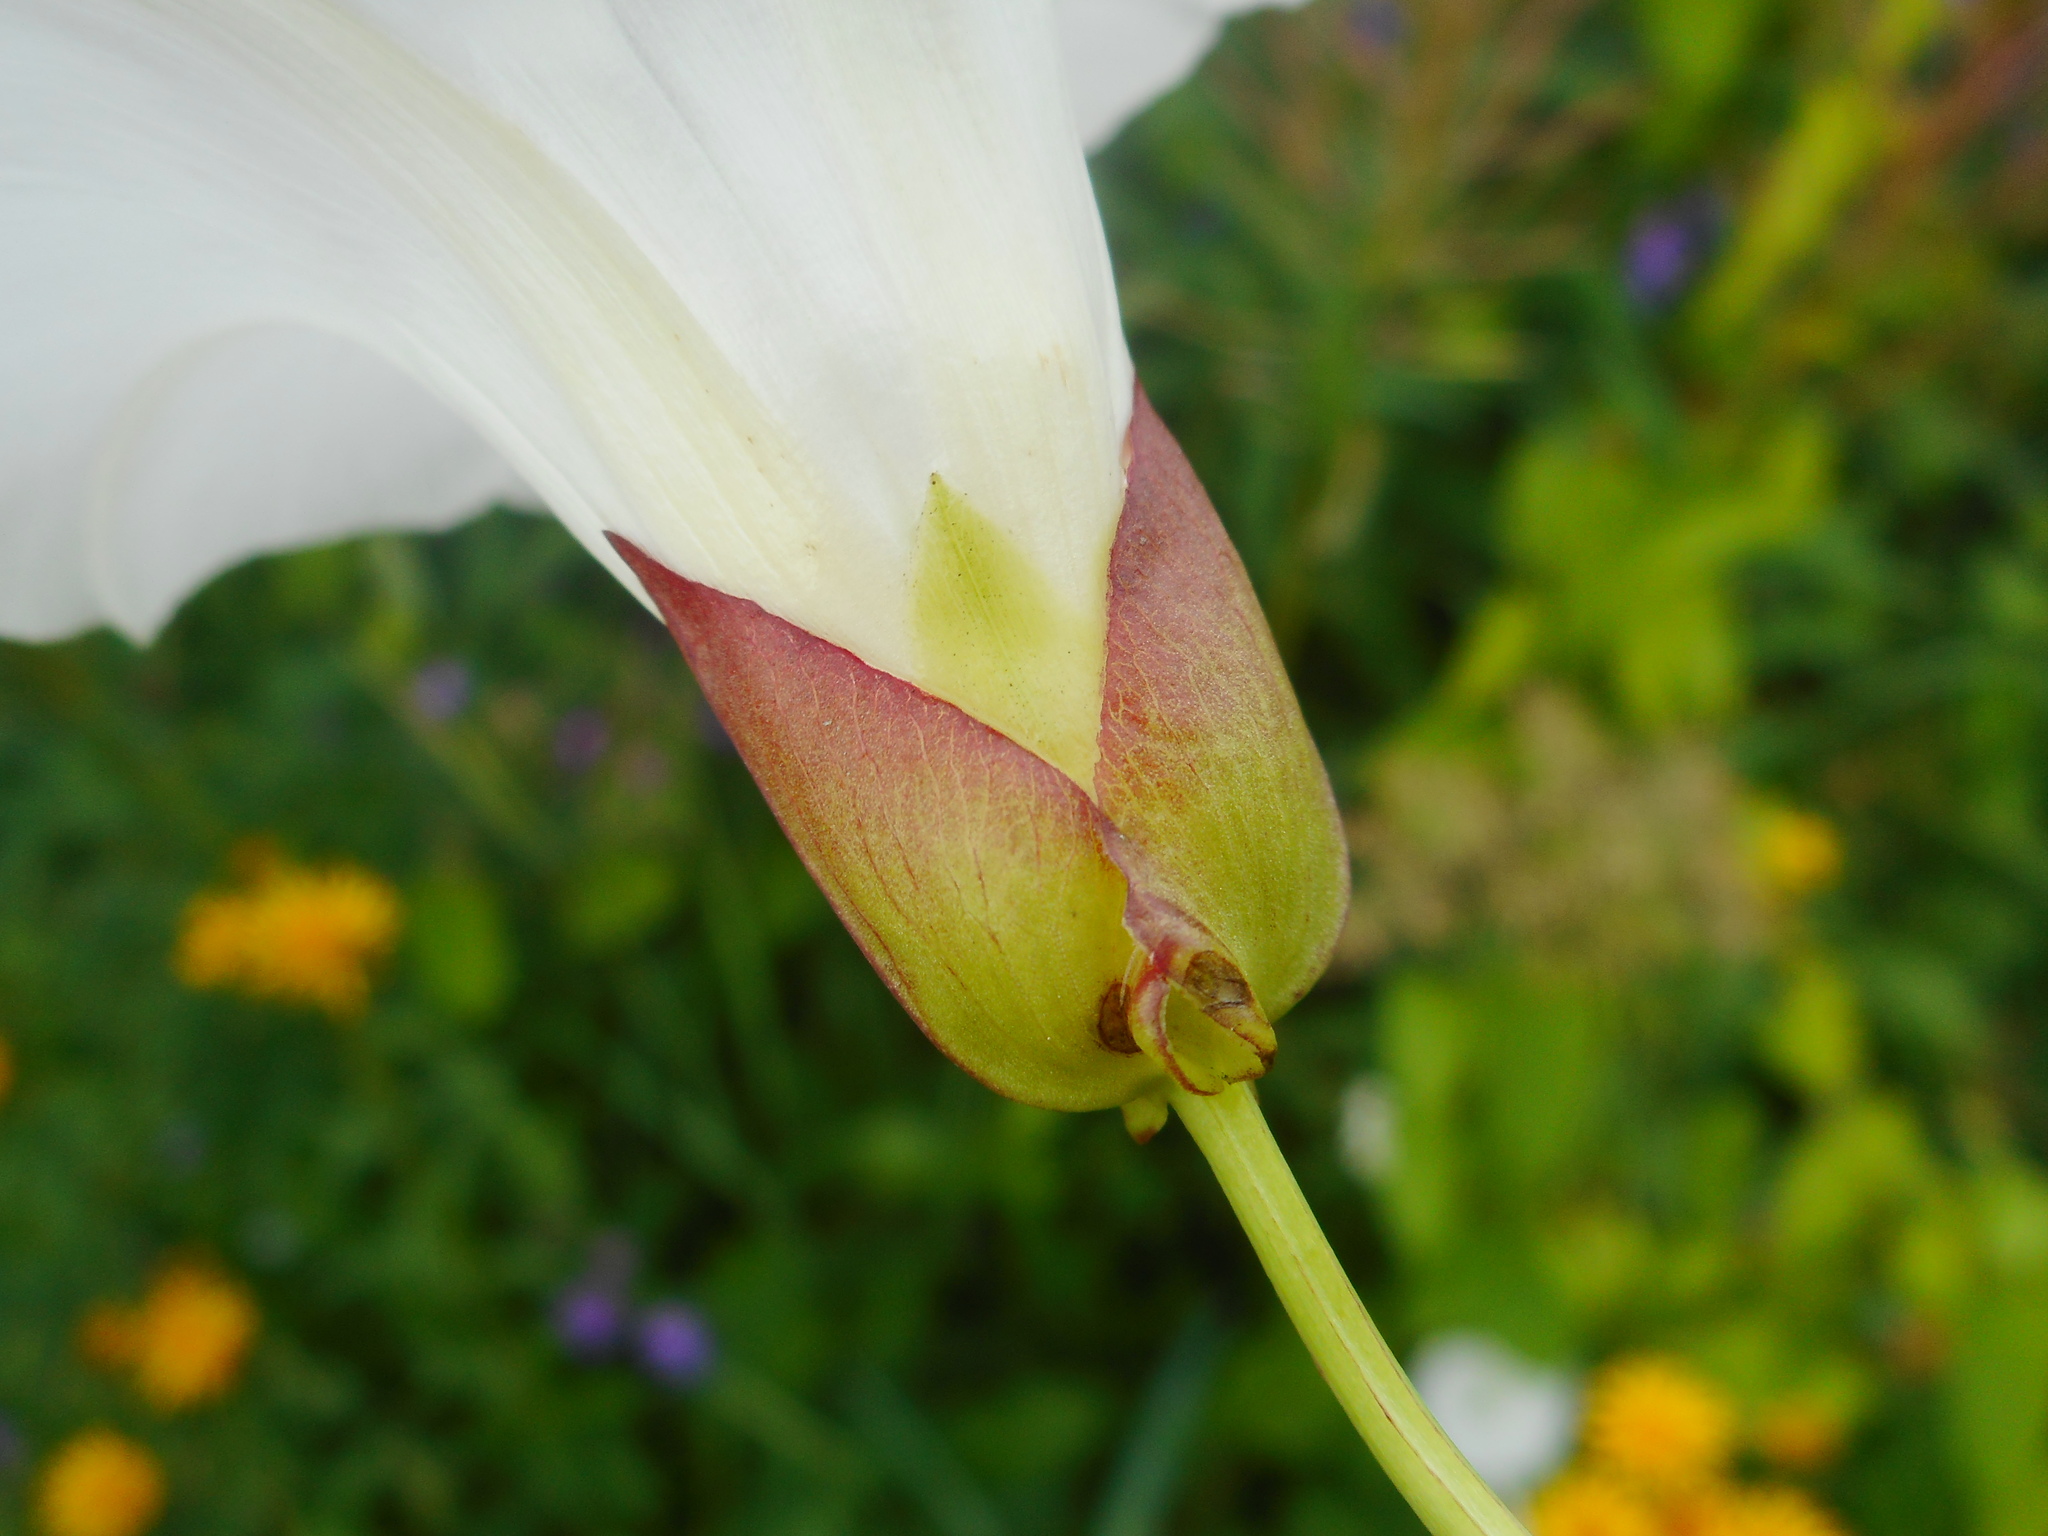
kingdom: Plantae
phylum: Tracheophyta
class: Magnoliopsida
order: Solanales
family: Convolvulaceae
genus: Calystegia
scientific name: Calystegia sepium
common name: Hedge bindweed
